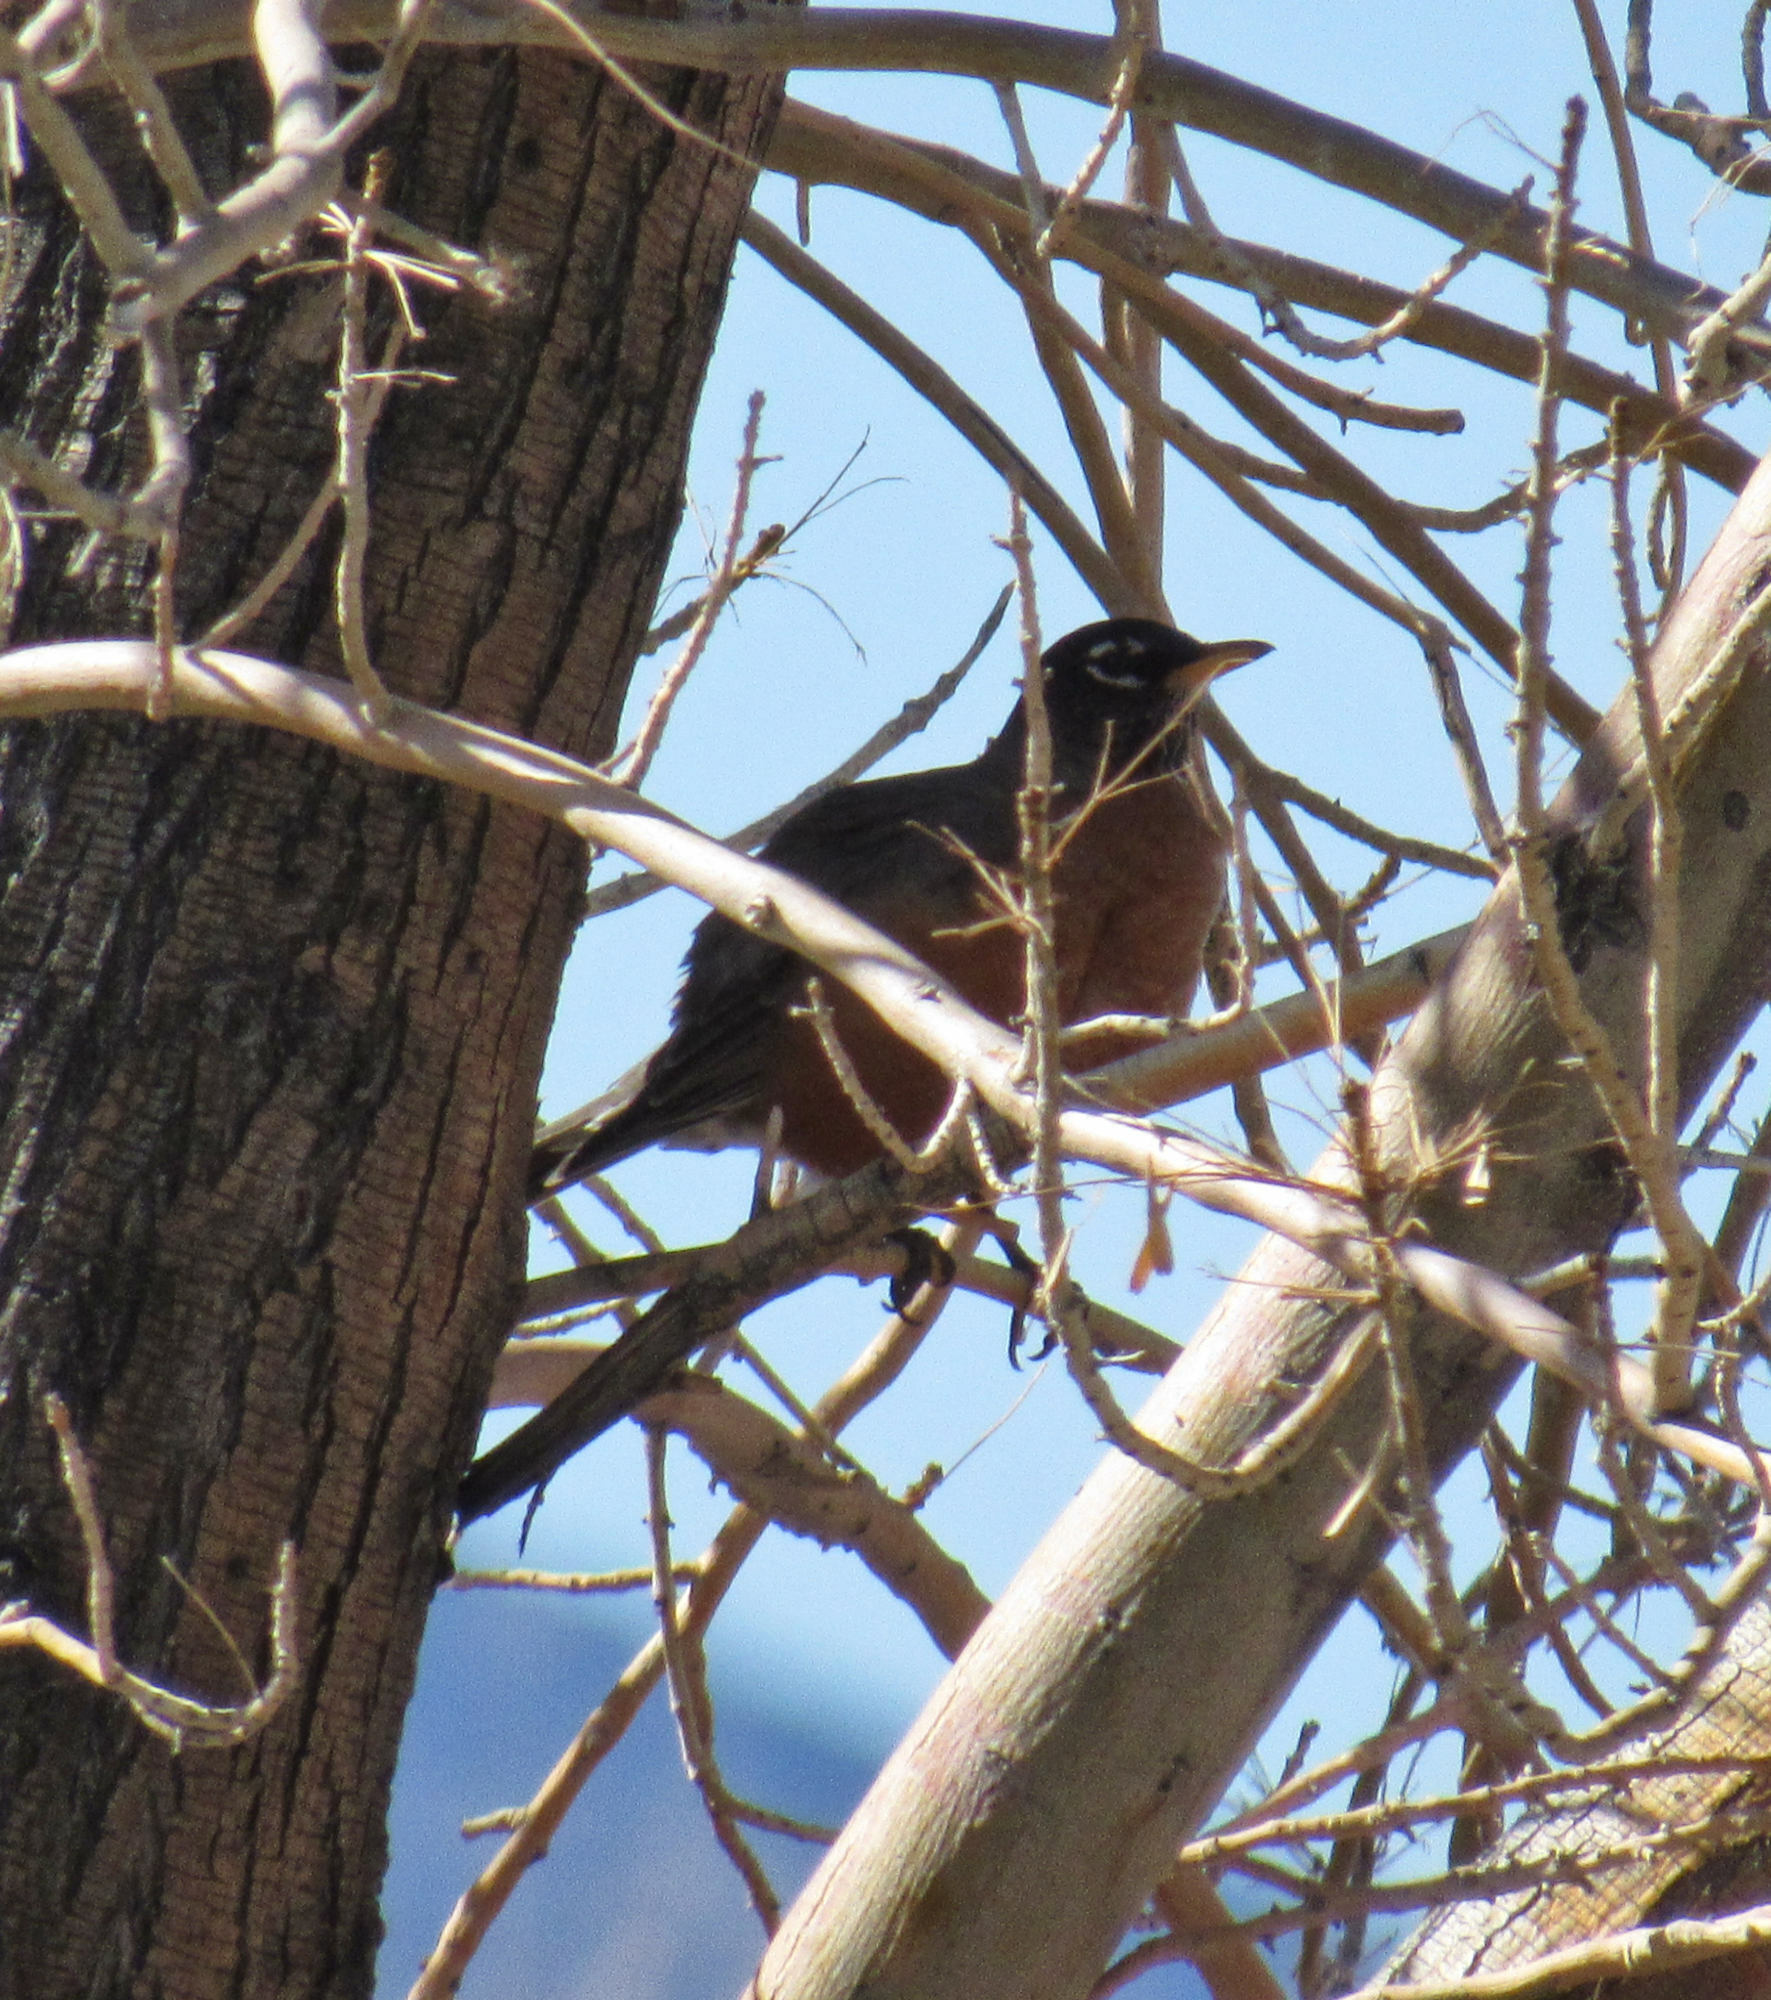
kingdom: Animalia
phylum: Chordata
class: Aves
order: Passeriformes
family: Turdidae
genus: Turdus
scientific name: Turdus migratorius
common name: American robin
